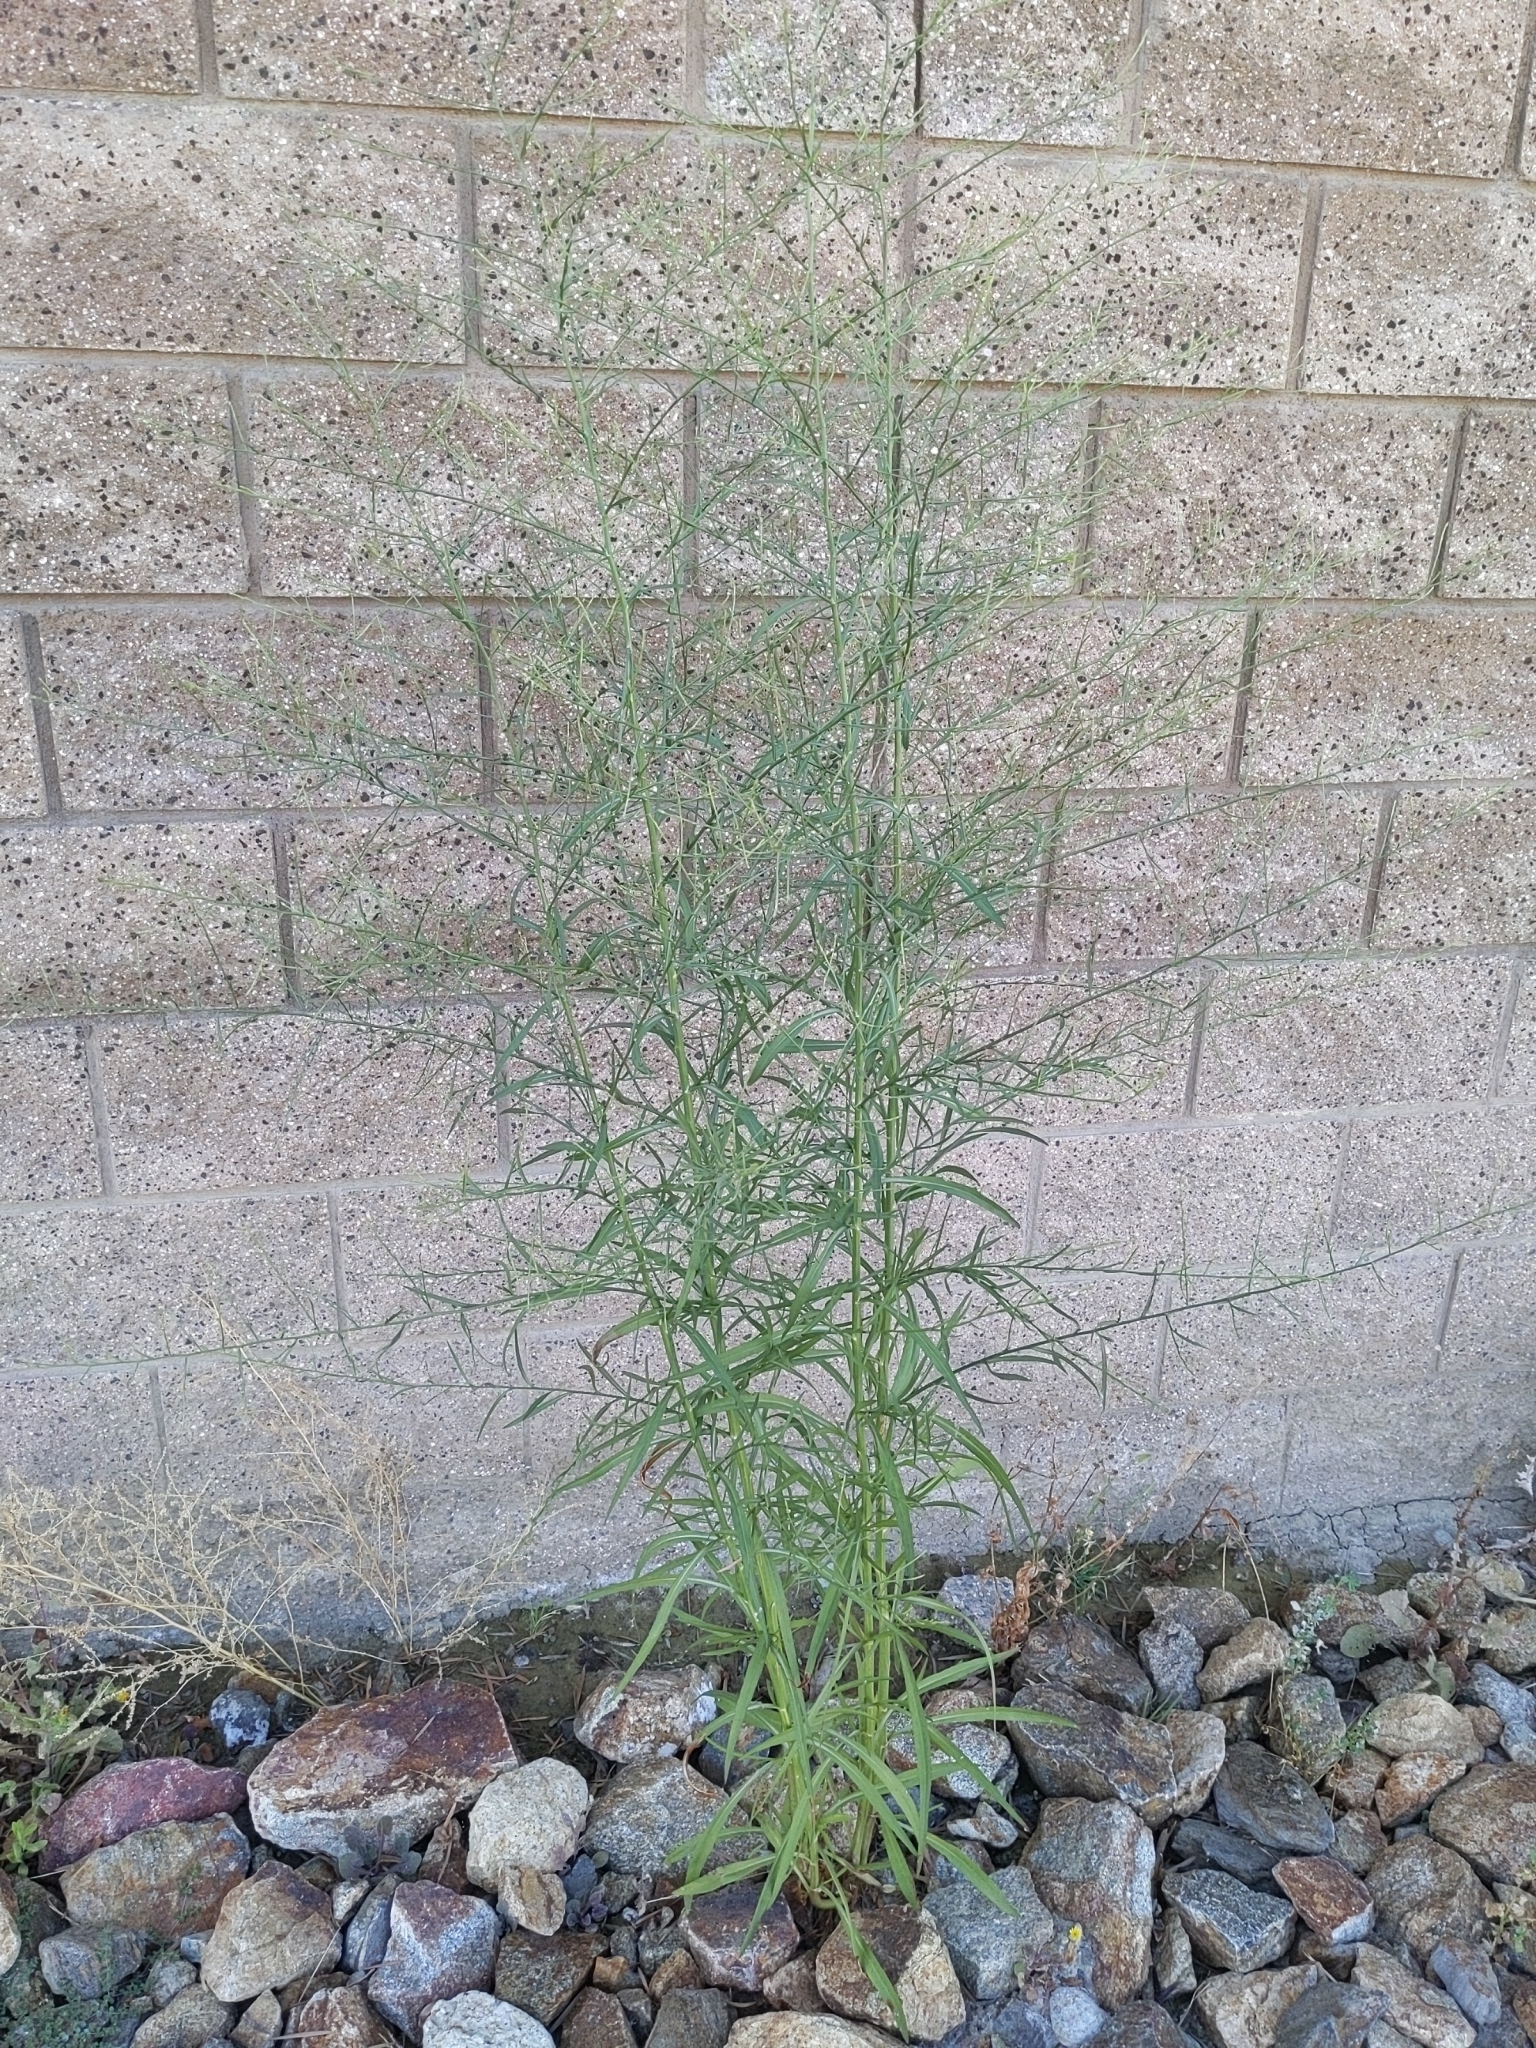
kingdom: Plantae
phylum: Tracheophyta
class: Magnoliopsida
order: Asterales
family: Asteraceae
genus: Symphyotrichum
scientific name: Symphyotrichum subulatum
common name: Annual saltmarsh aster
